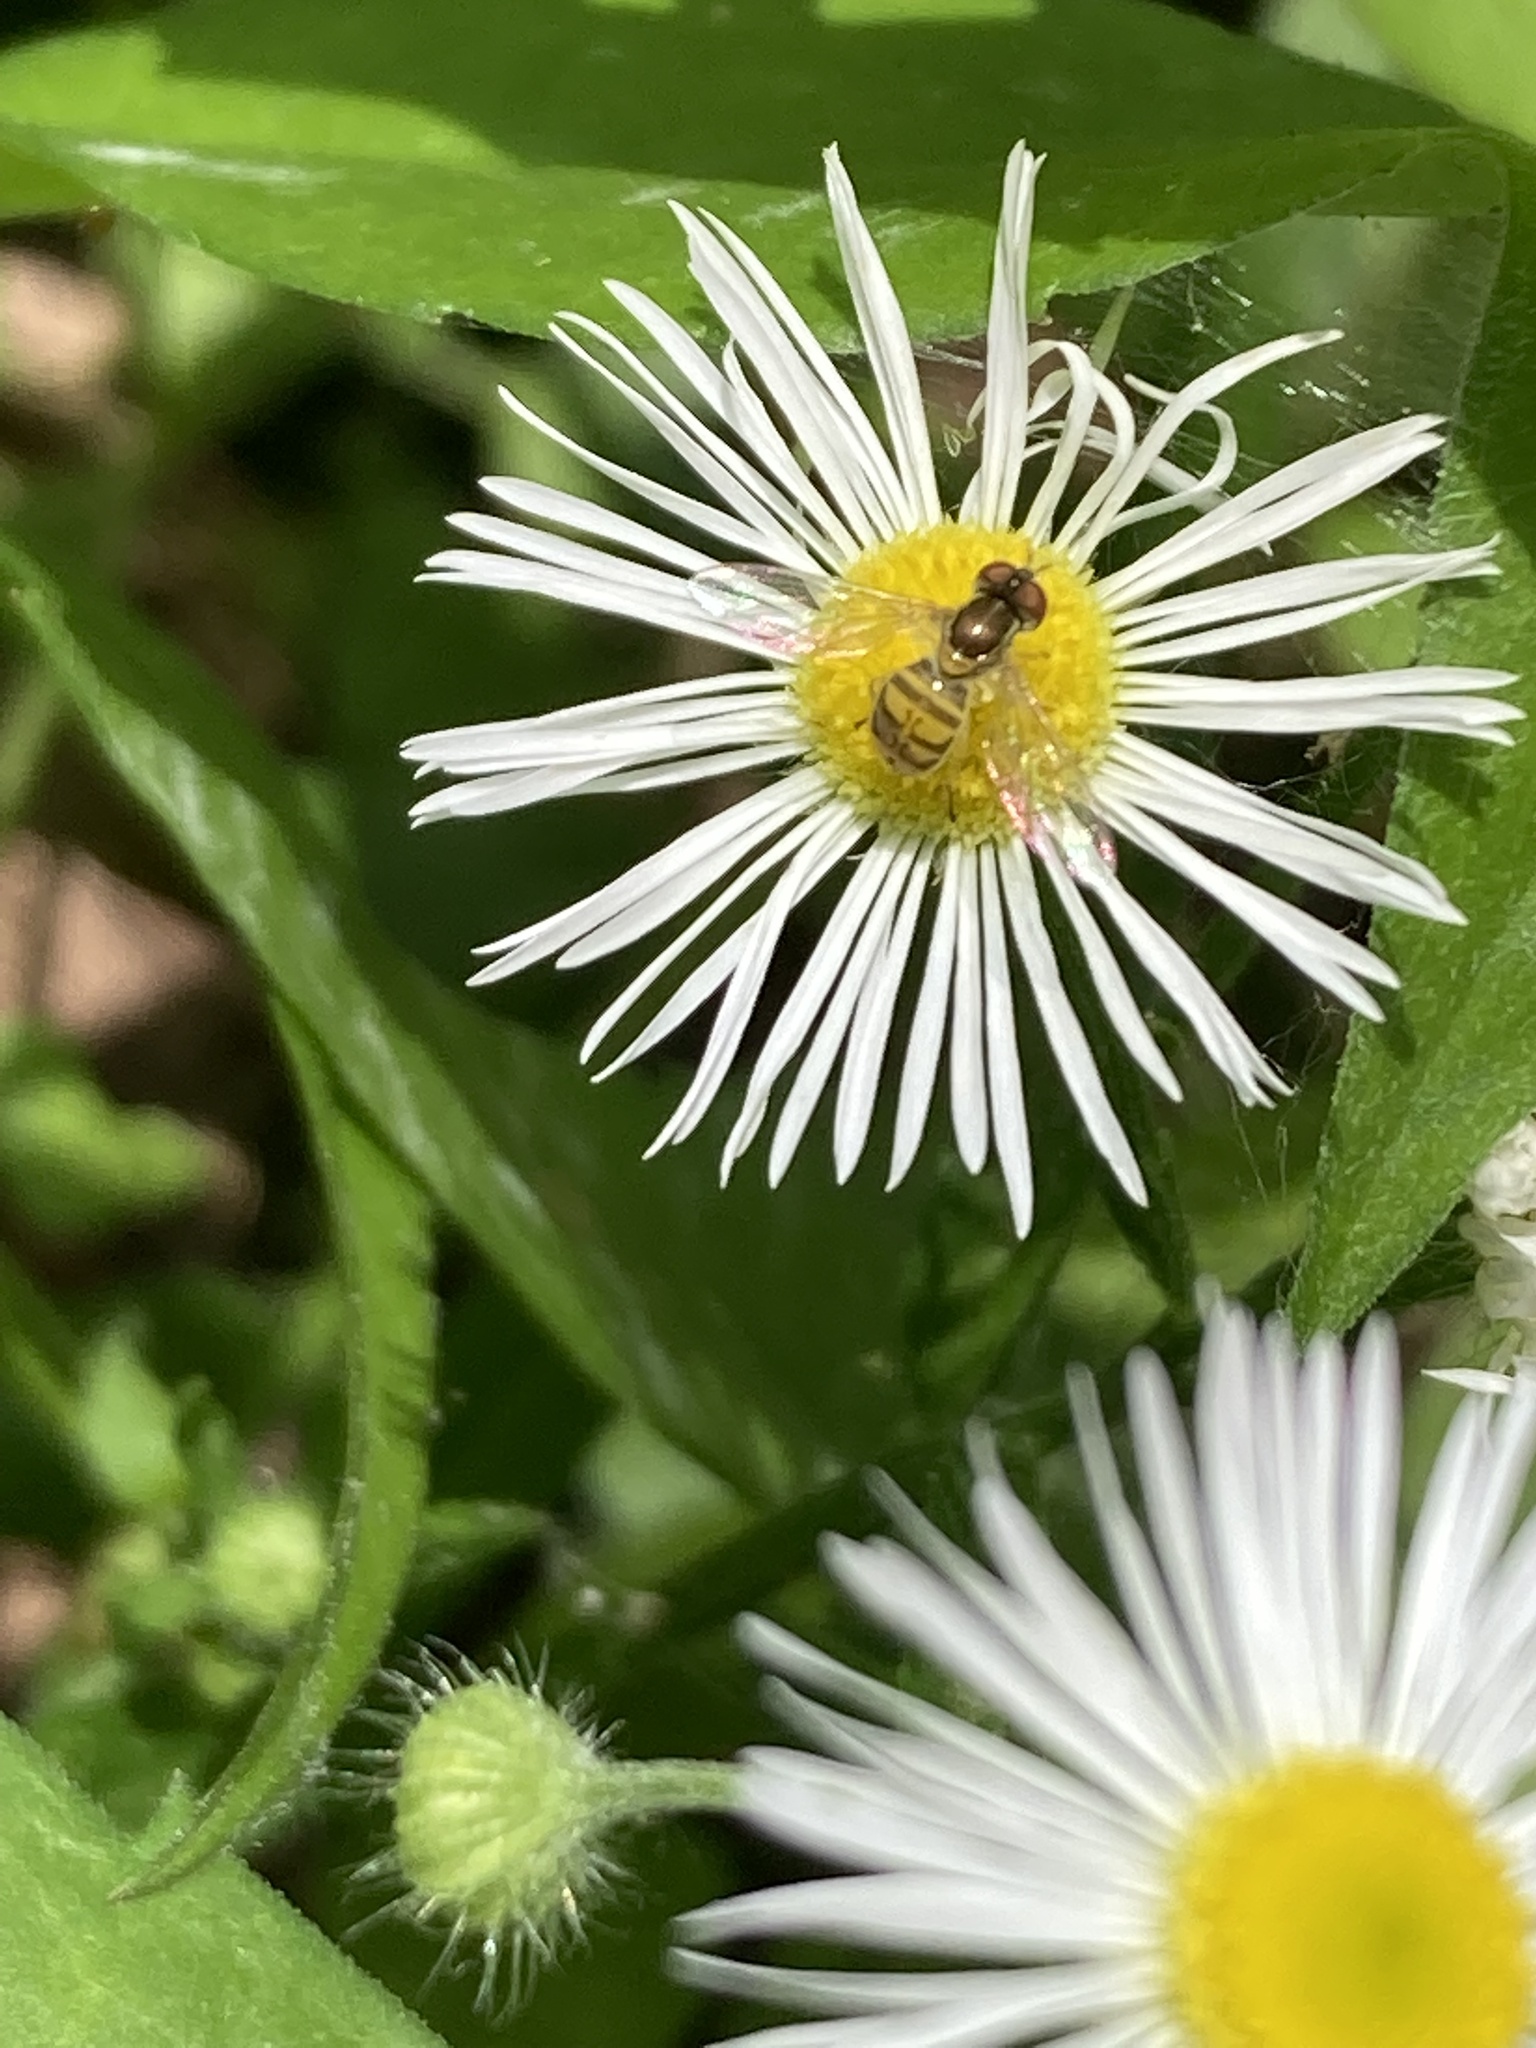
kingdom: Animalia
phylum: Arthropoda
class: Insecta
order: Diptera
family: Syrphidae
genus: Toxomerus
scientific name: Toxomerus marginatus
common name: Syrphid fly
